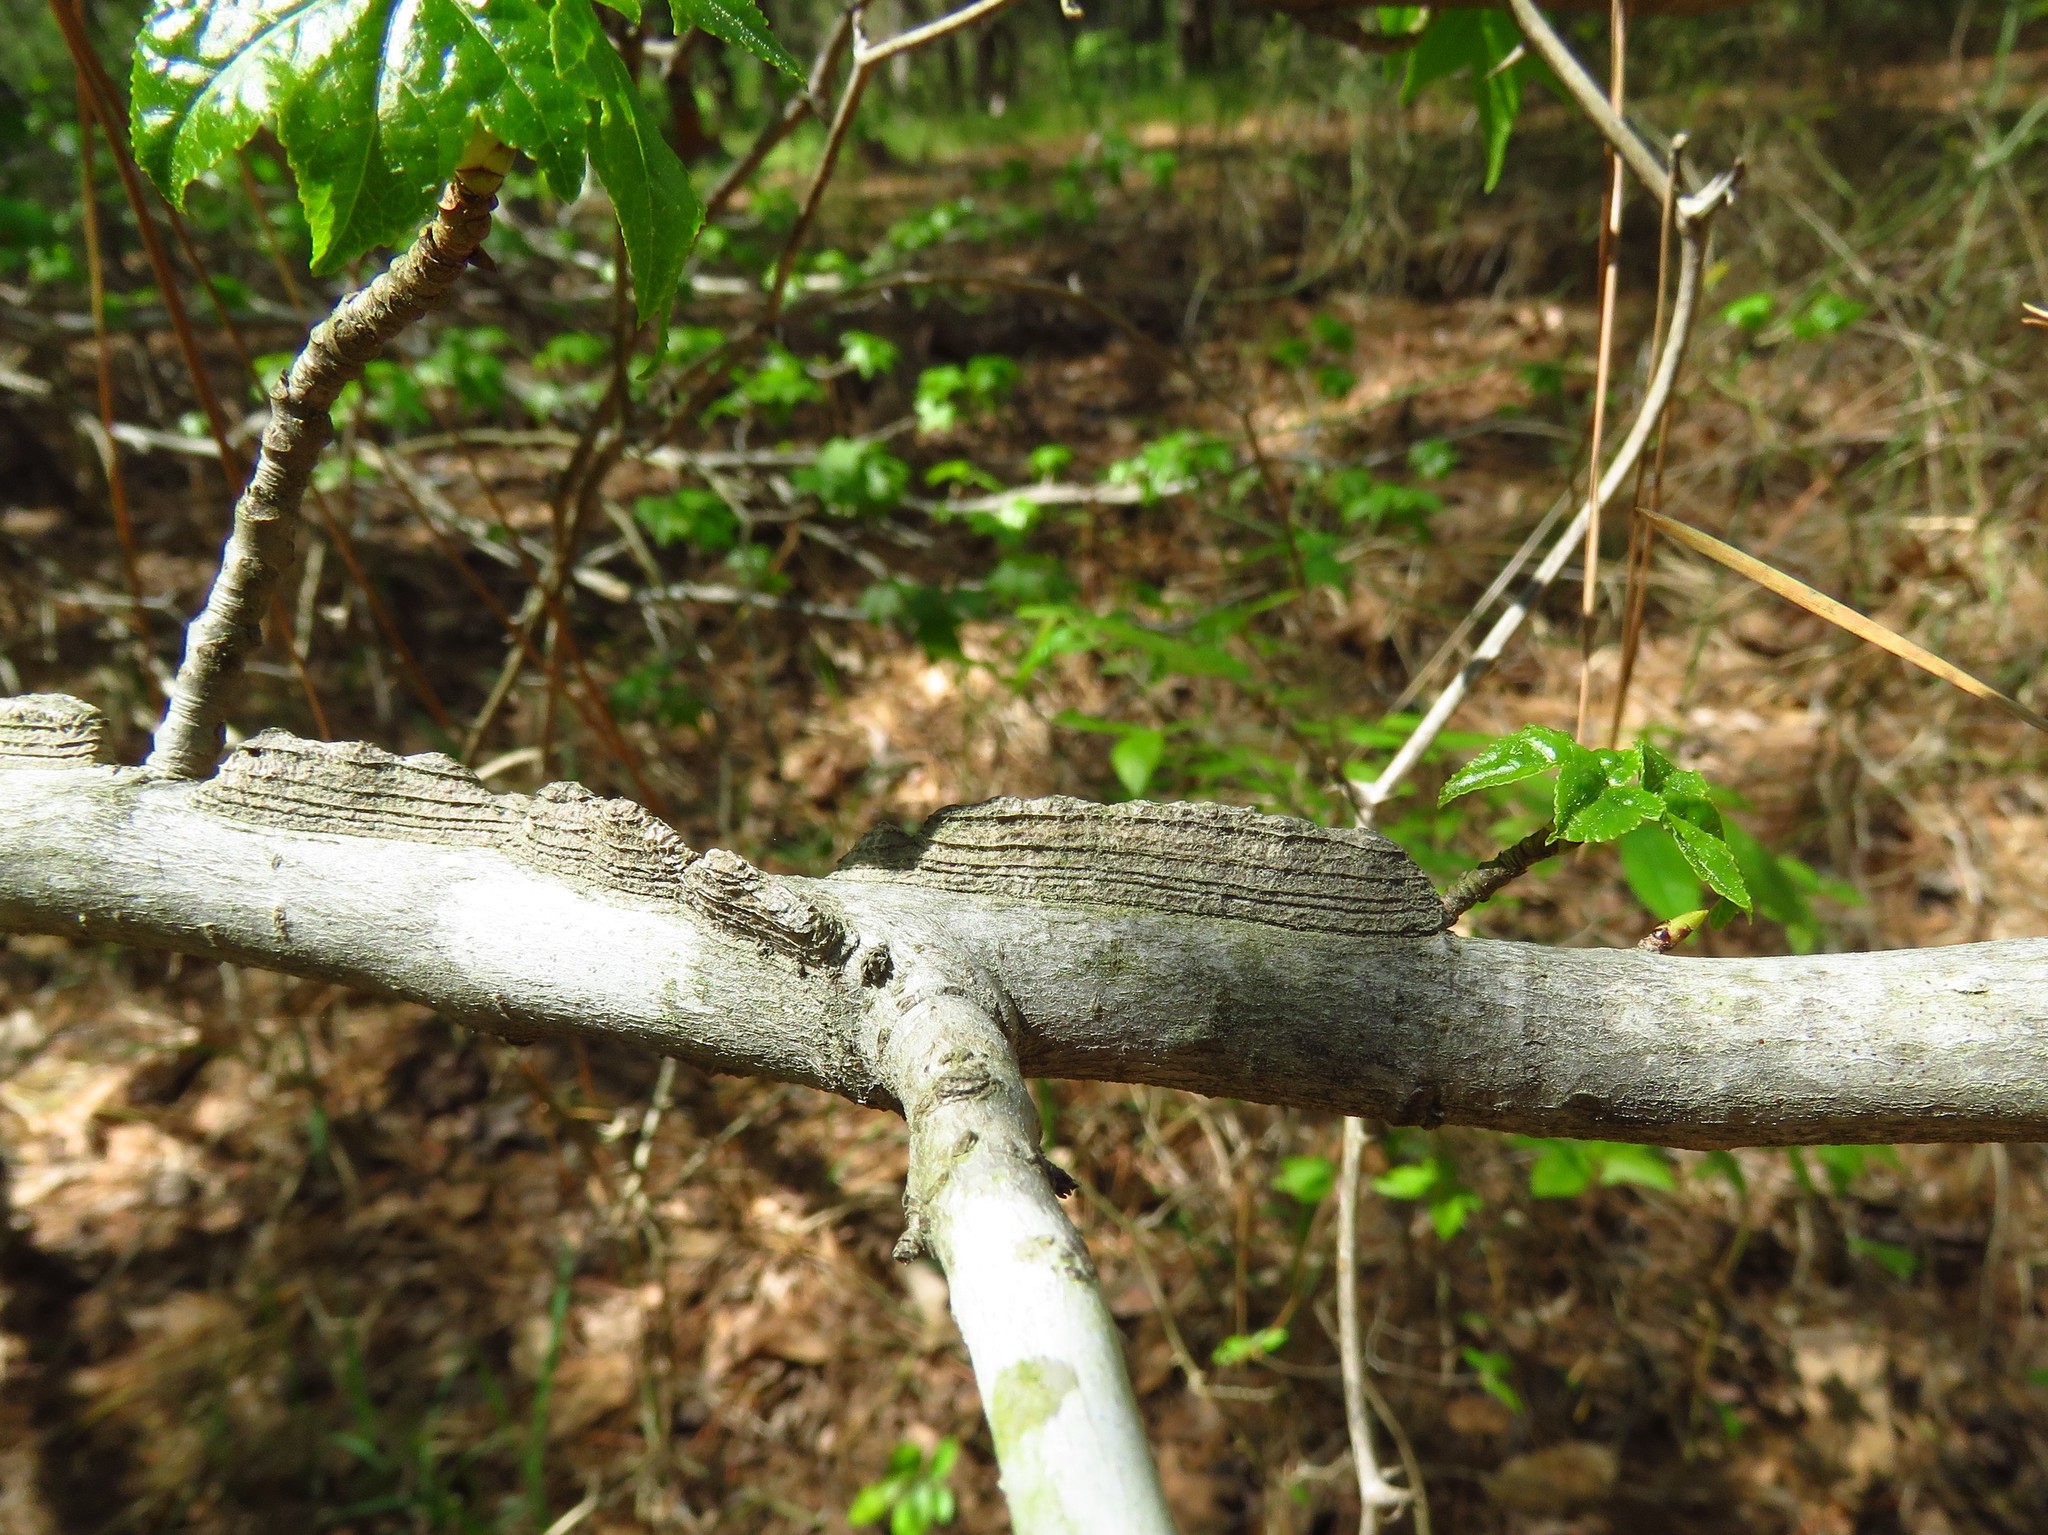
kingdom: Plantae
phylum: Tracheophyta
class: Magnoliopsida
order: Saxifragales
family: Altingiaceae
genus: Liquidambar
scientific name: Liquidambar styraciflua
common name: Sweet gum
